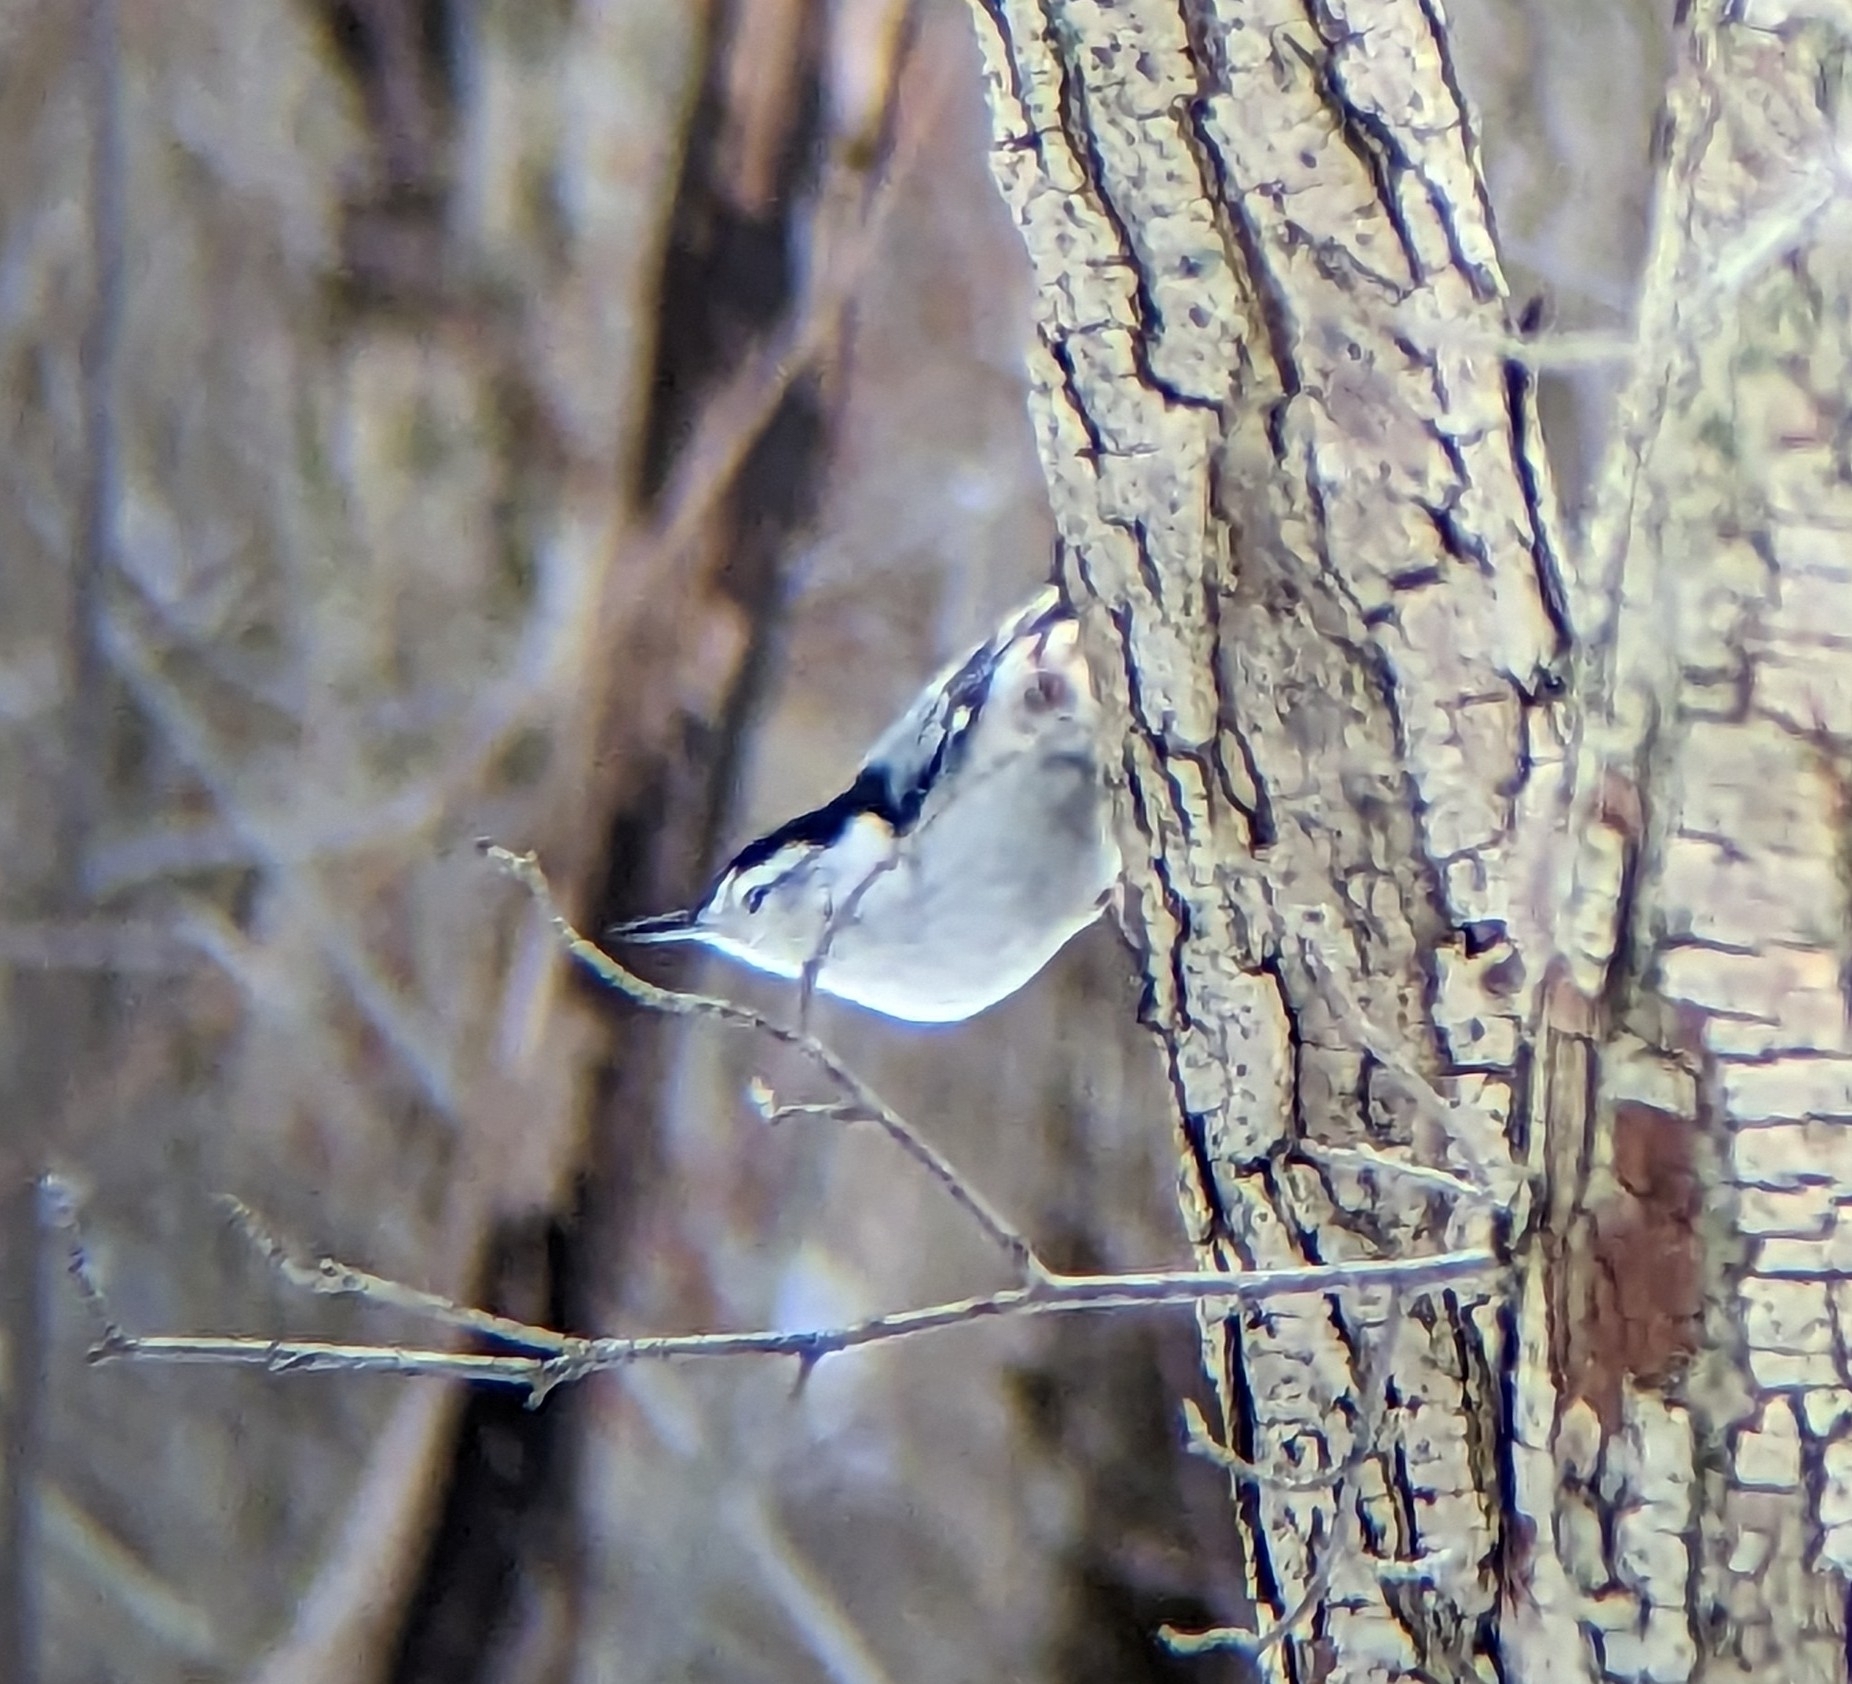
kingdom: Animalia
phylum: Chordata
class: Aves
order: Passeriformes
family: Sittidae
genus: Sitta
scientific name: Sitta carolinensis
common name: White-breasted nuthatch
